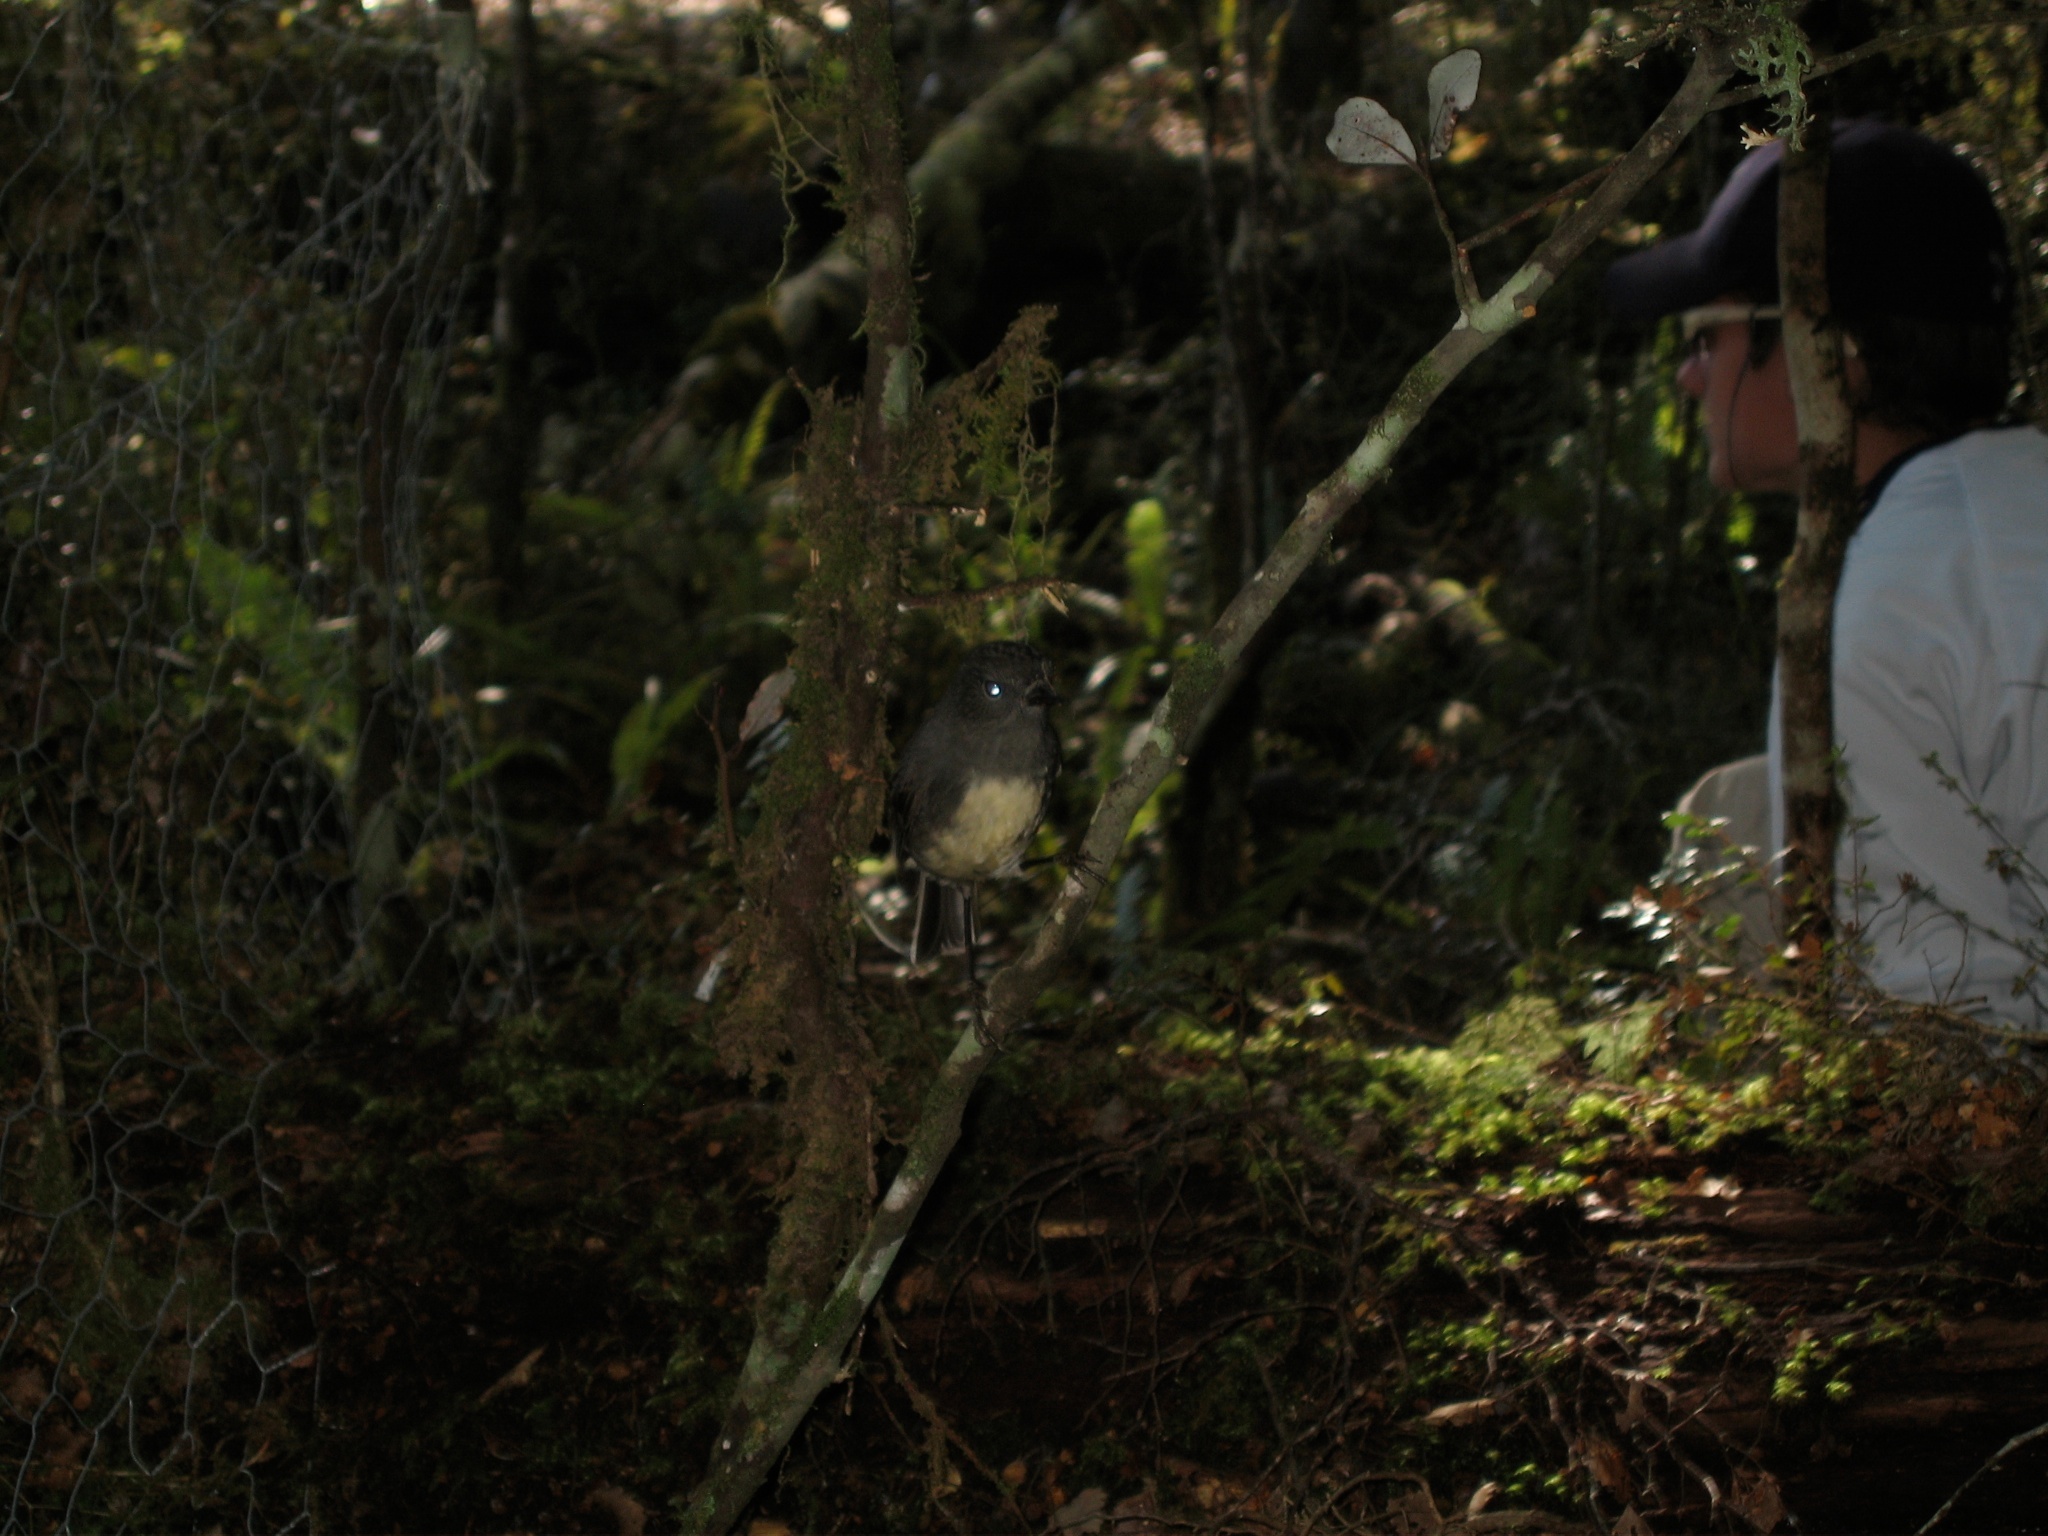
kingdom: Animalia
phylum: Chordata
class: Aves
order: Passeriformes
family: Petroicidae
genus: Petroica
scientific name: Petroica australis
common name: New zealand robin
